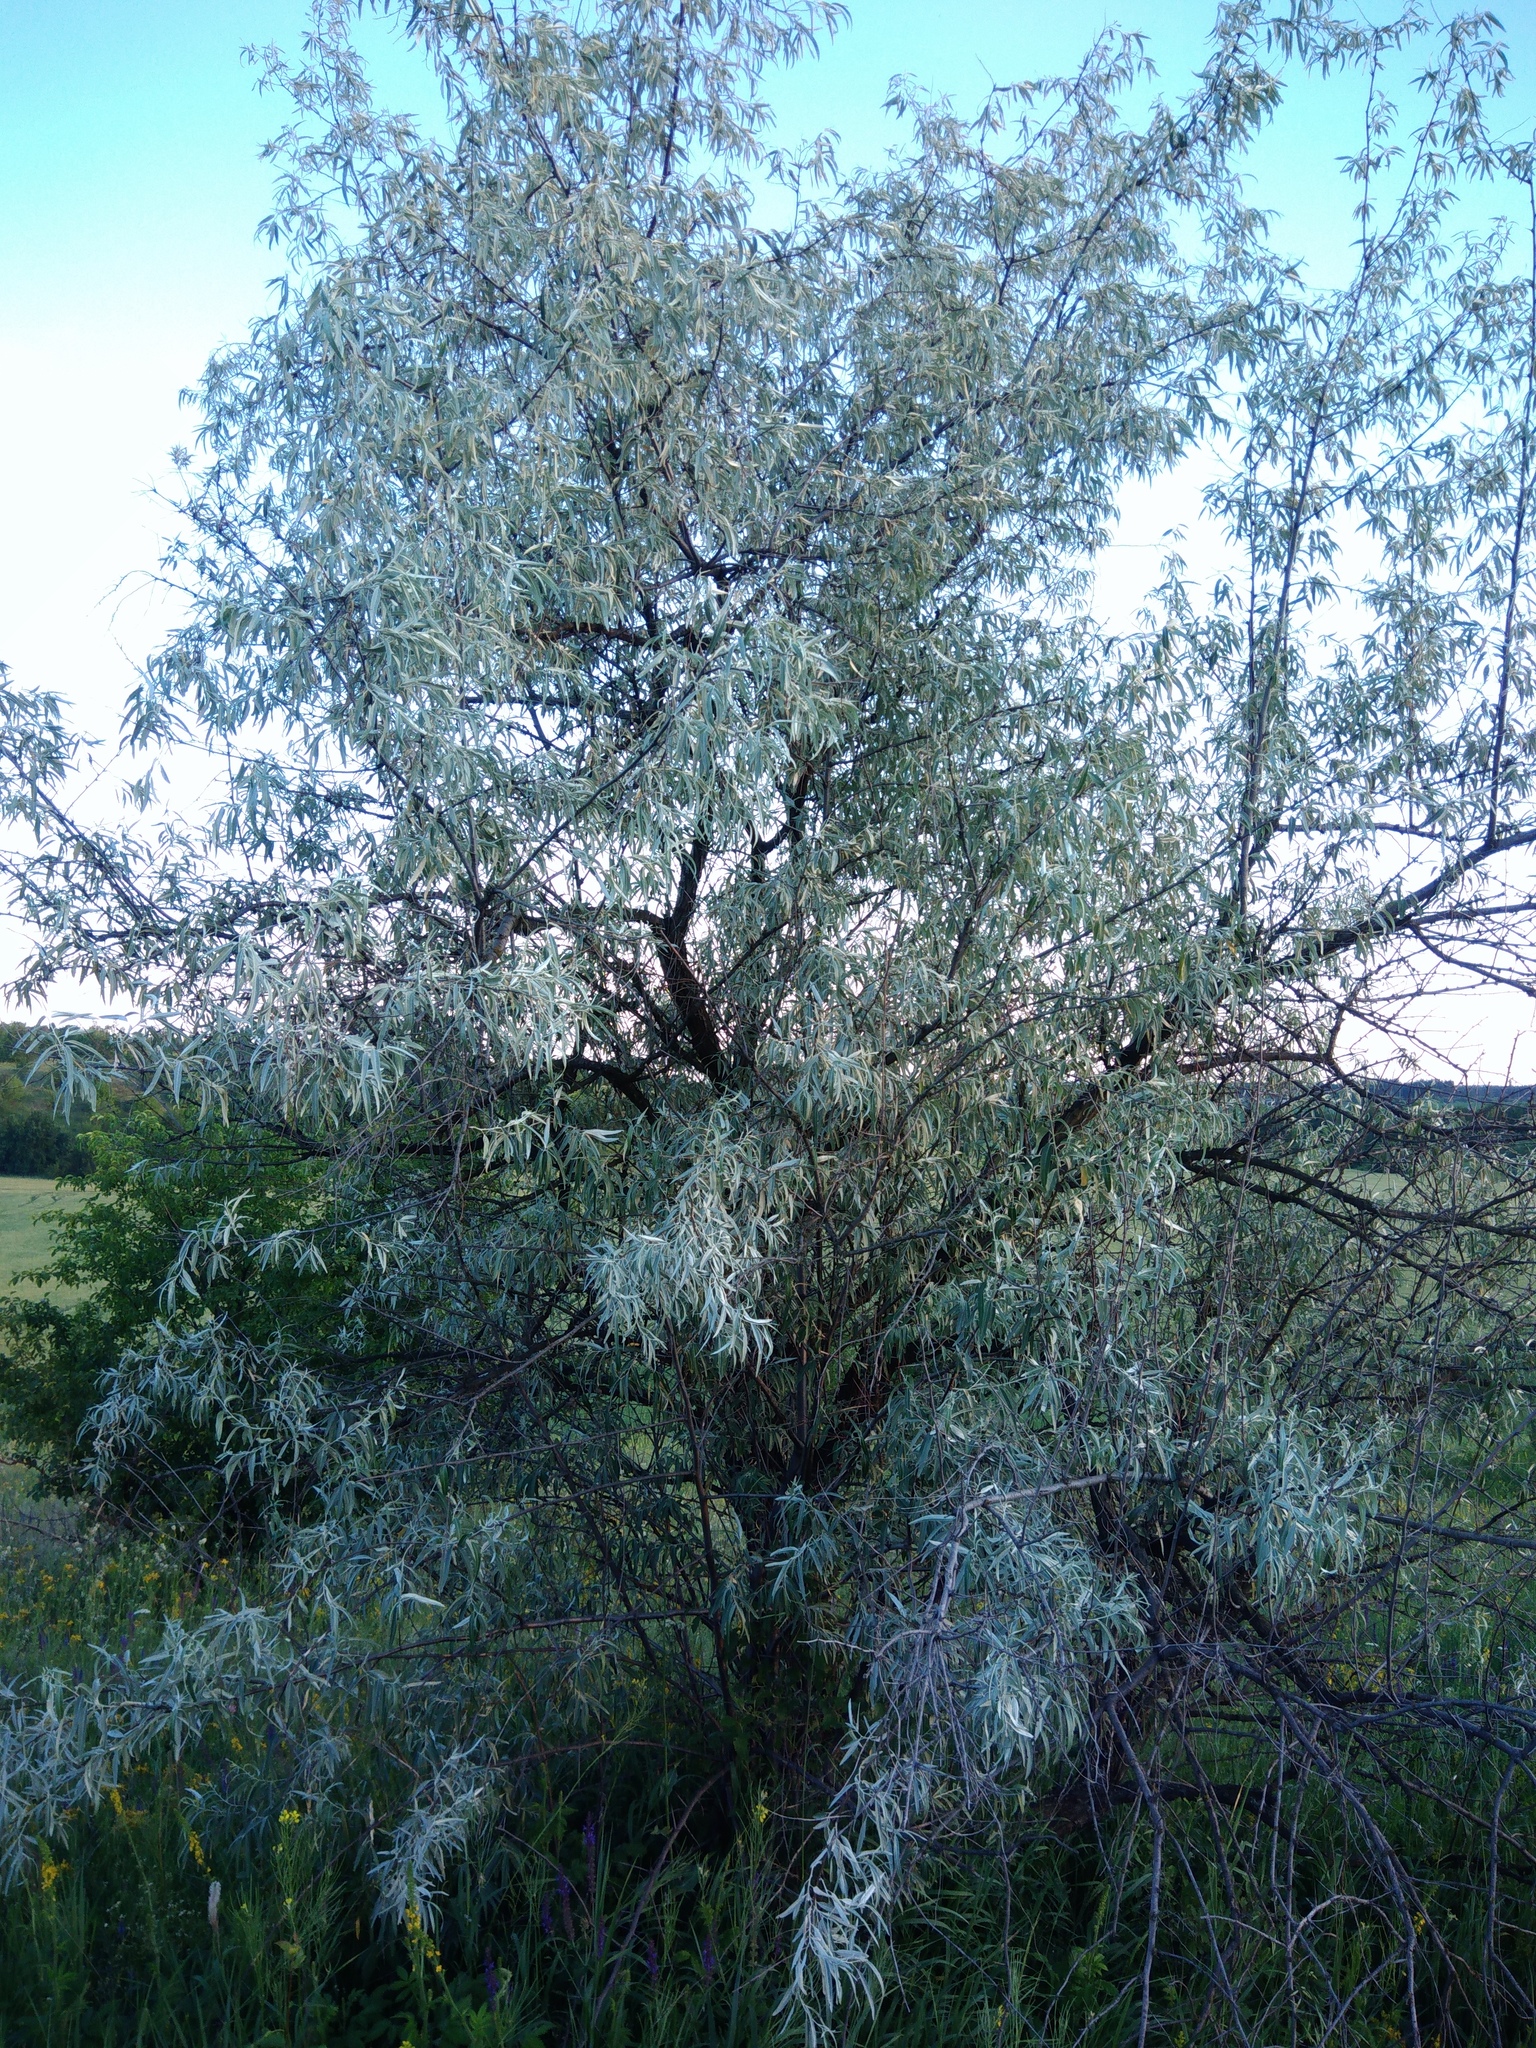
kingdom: Plantae
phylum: Tracheophyta
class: Magnoliopsida
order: Rosales
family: Elaeagnaceae
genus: Elaeagnus
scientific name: Elaeagnus angustifolia
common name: Russian olive
